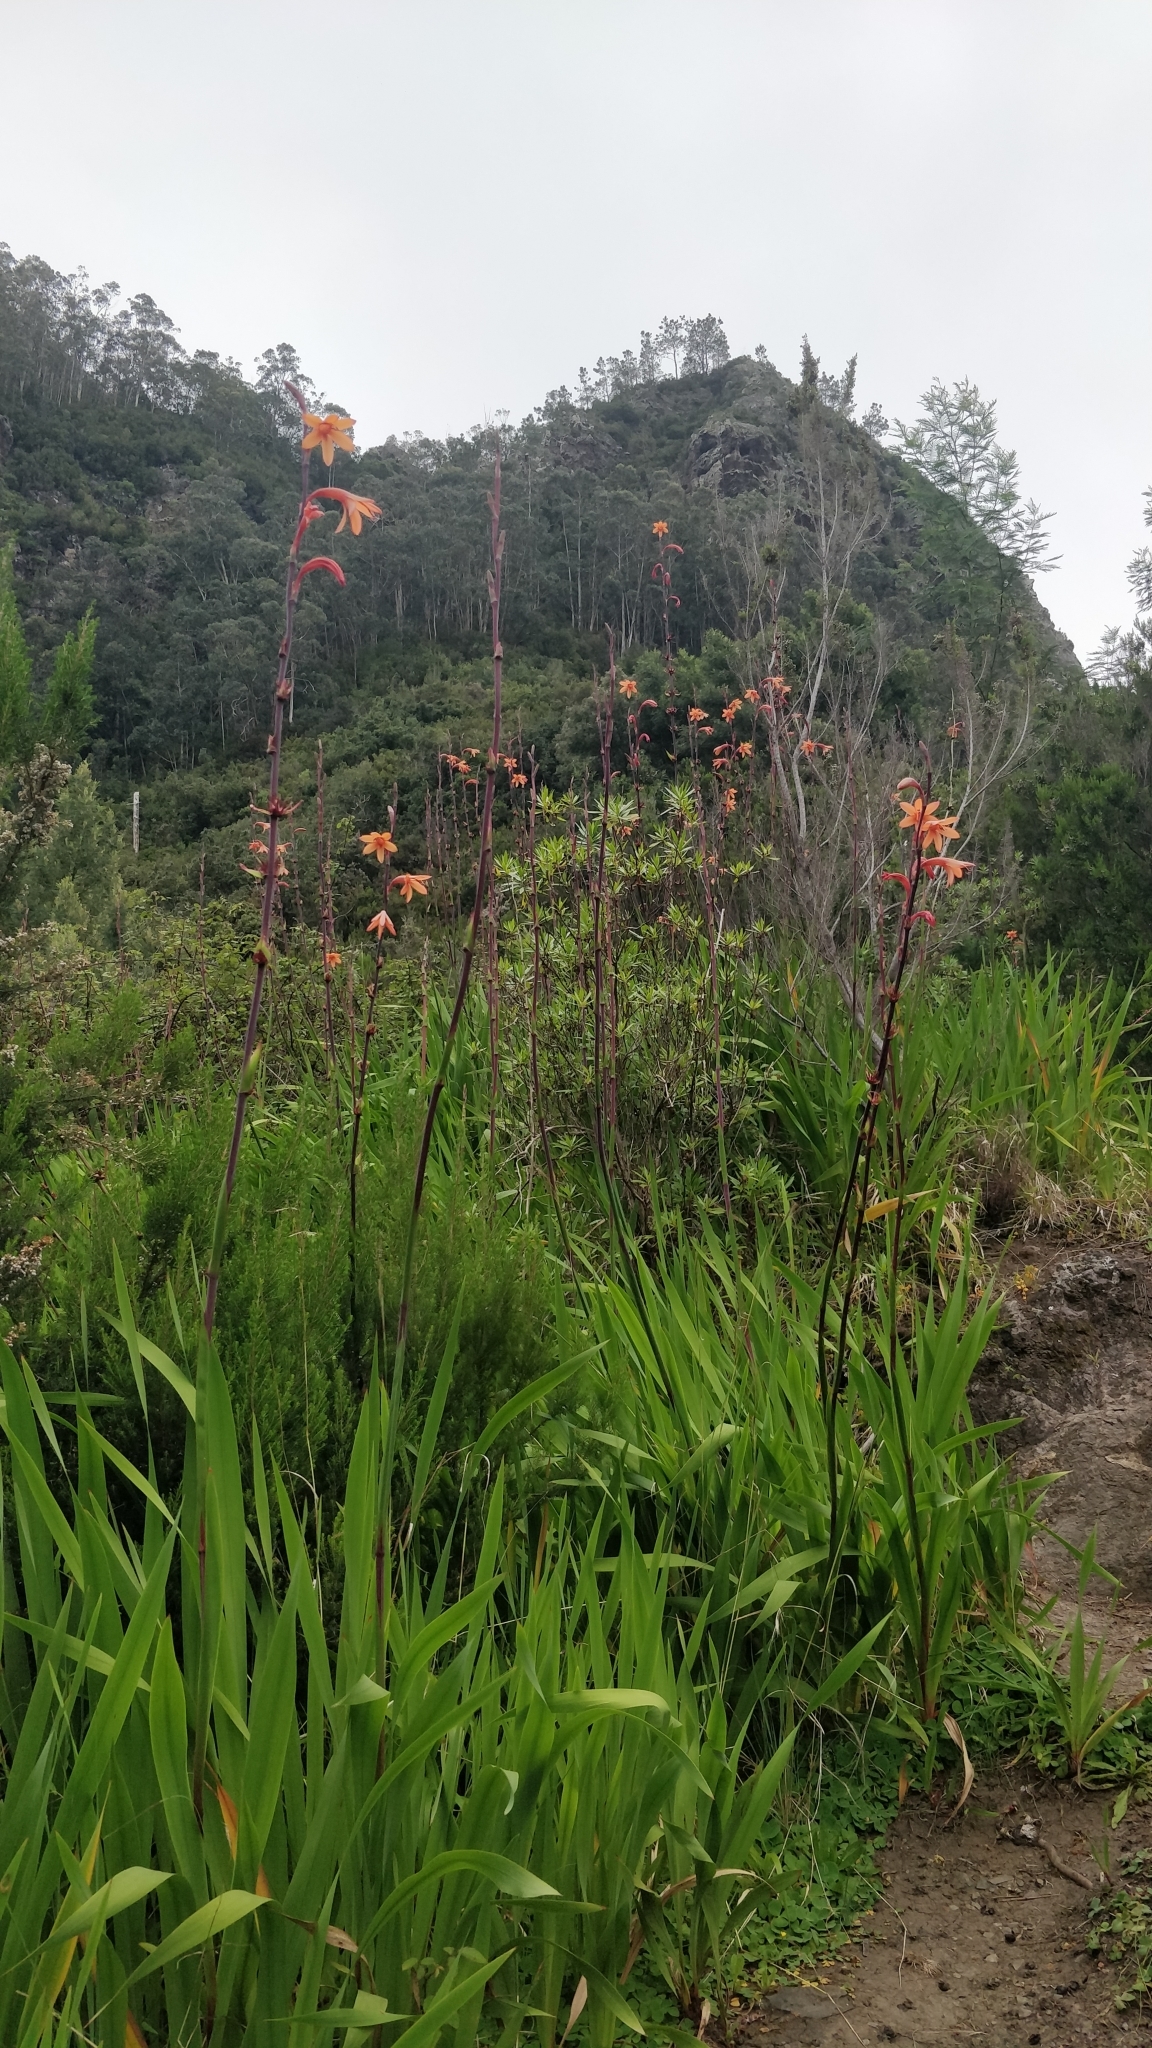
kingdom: Plantae
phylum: Tracheophyta
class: Liliopsida
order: Asparagales
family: Iridaceae
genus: Watsonia
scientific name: Watsonia meriana
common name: Bulbil bugle-lily
